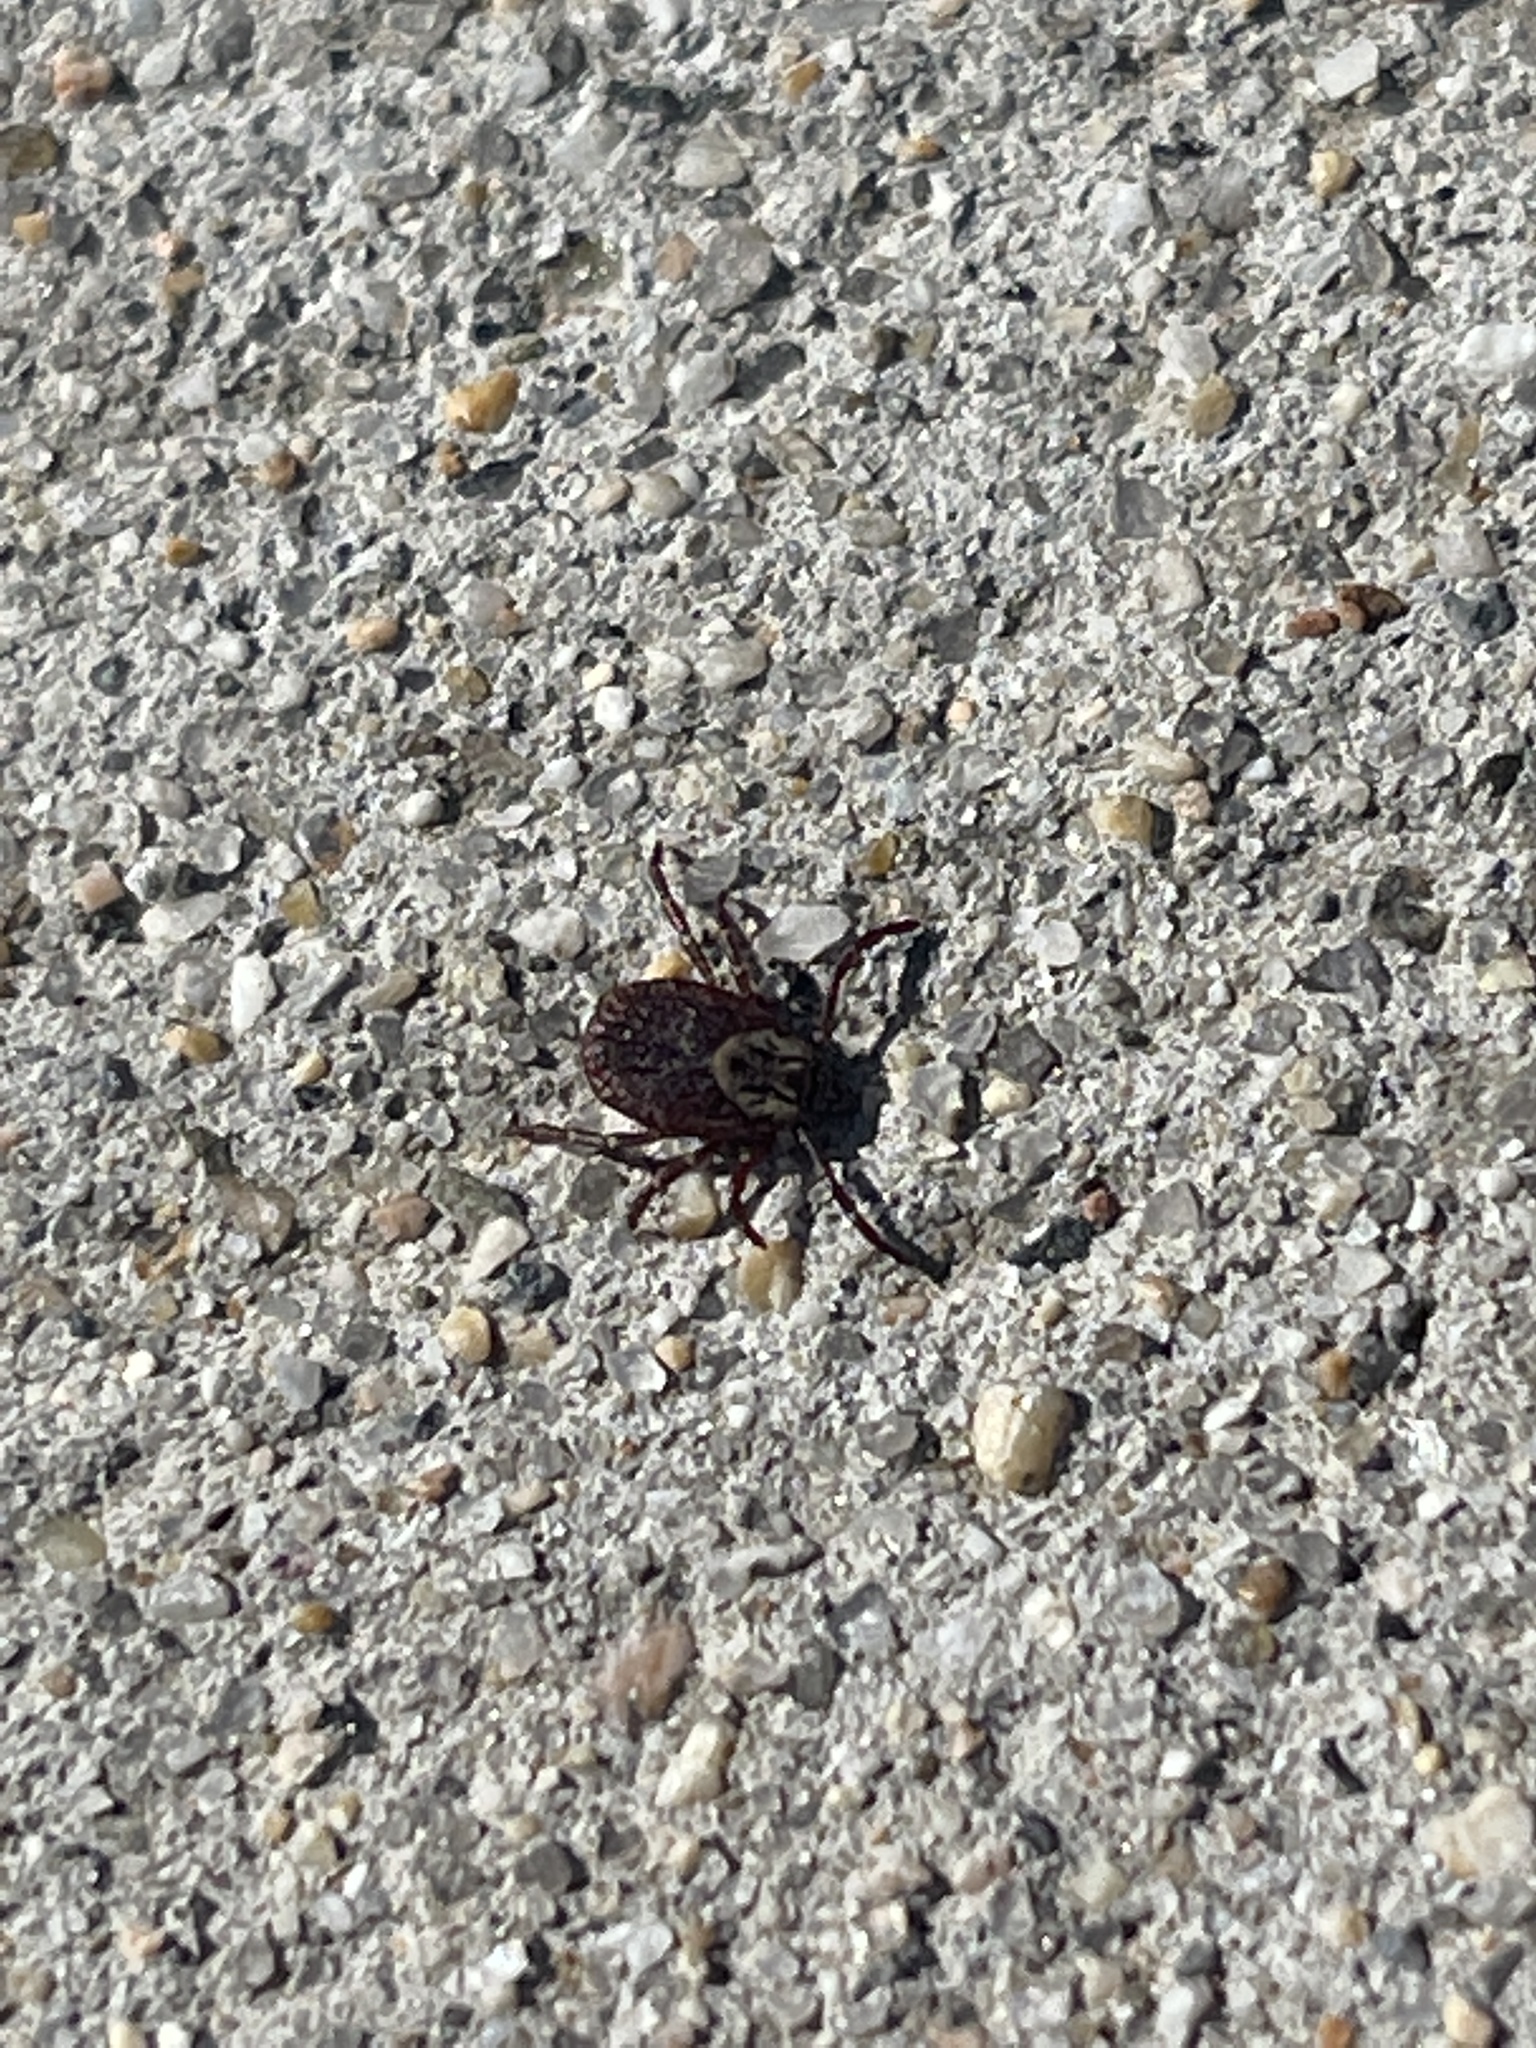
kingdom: Animalia
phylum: Arthropoda
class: Arachnida
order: Ixodida
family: Ixodidae
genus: Dermacentor
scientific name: Dermacentor variabilis
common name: American dog tick
